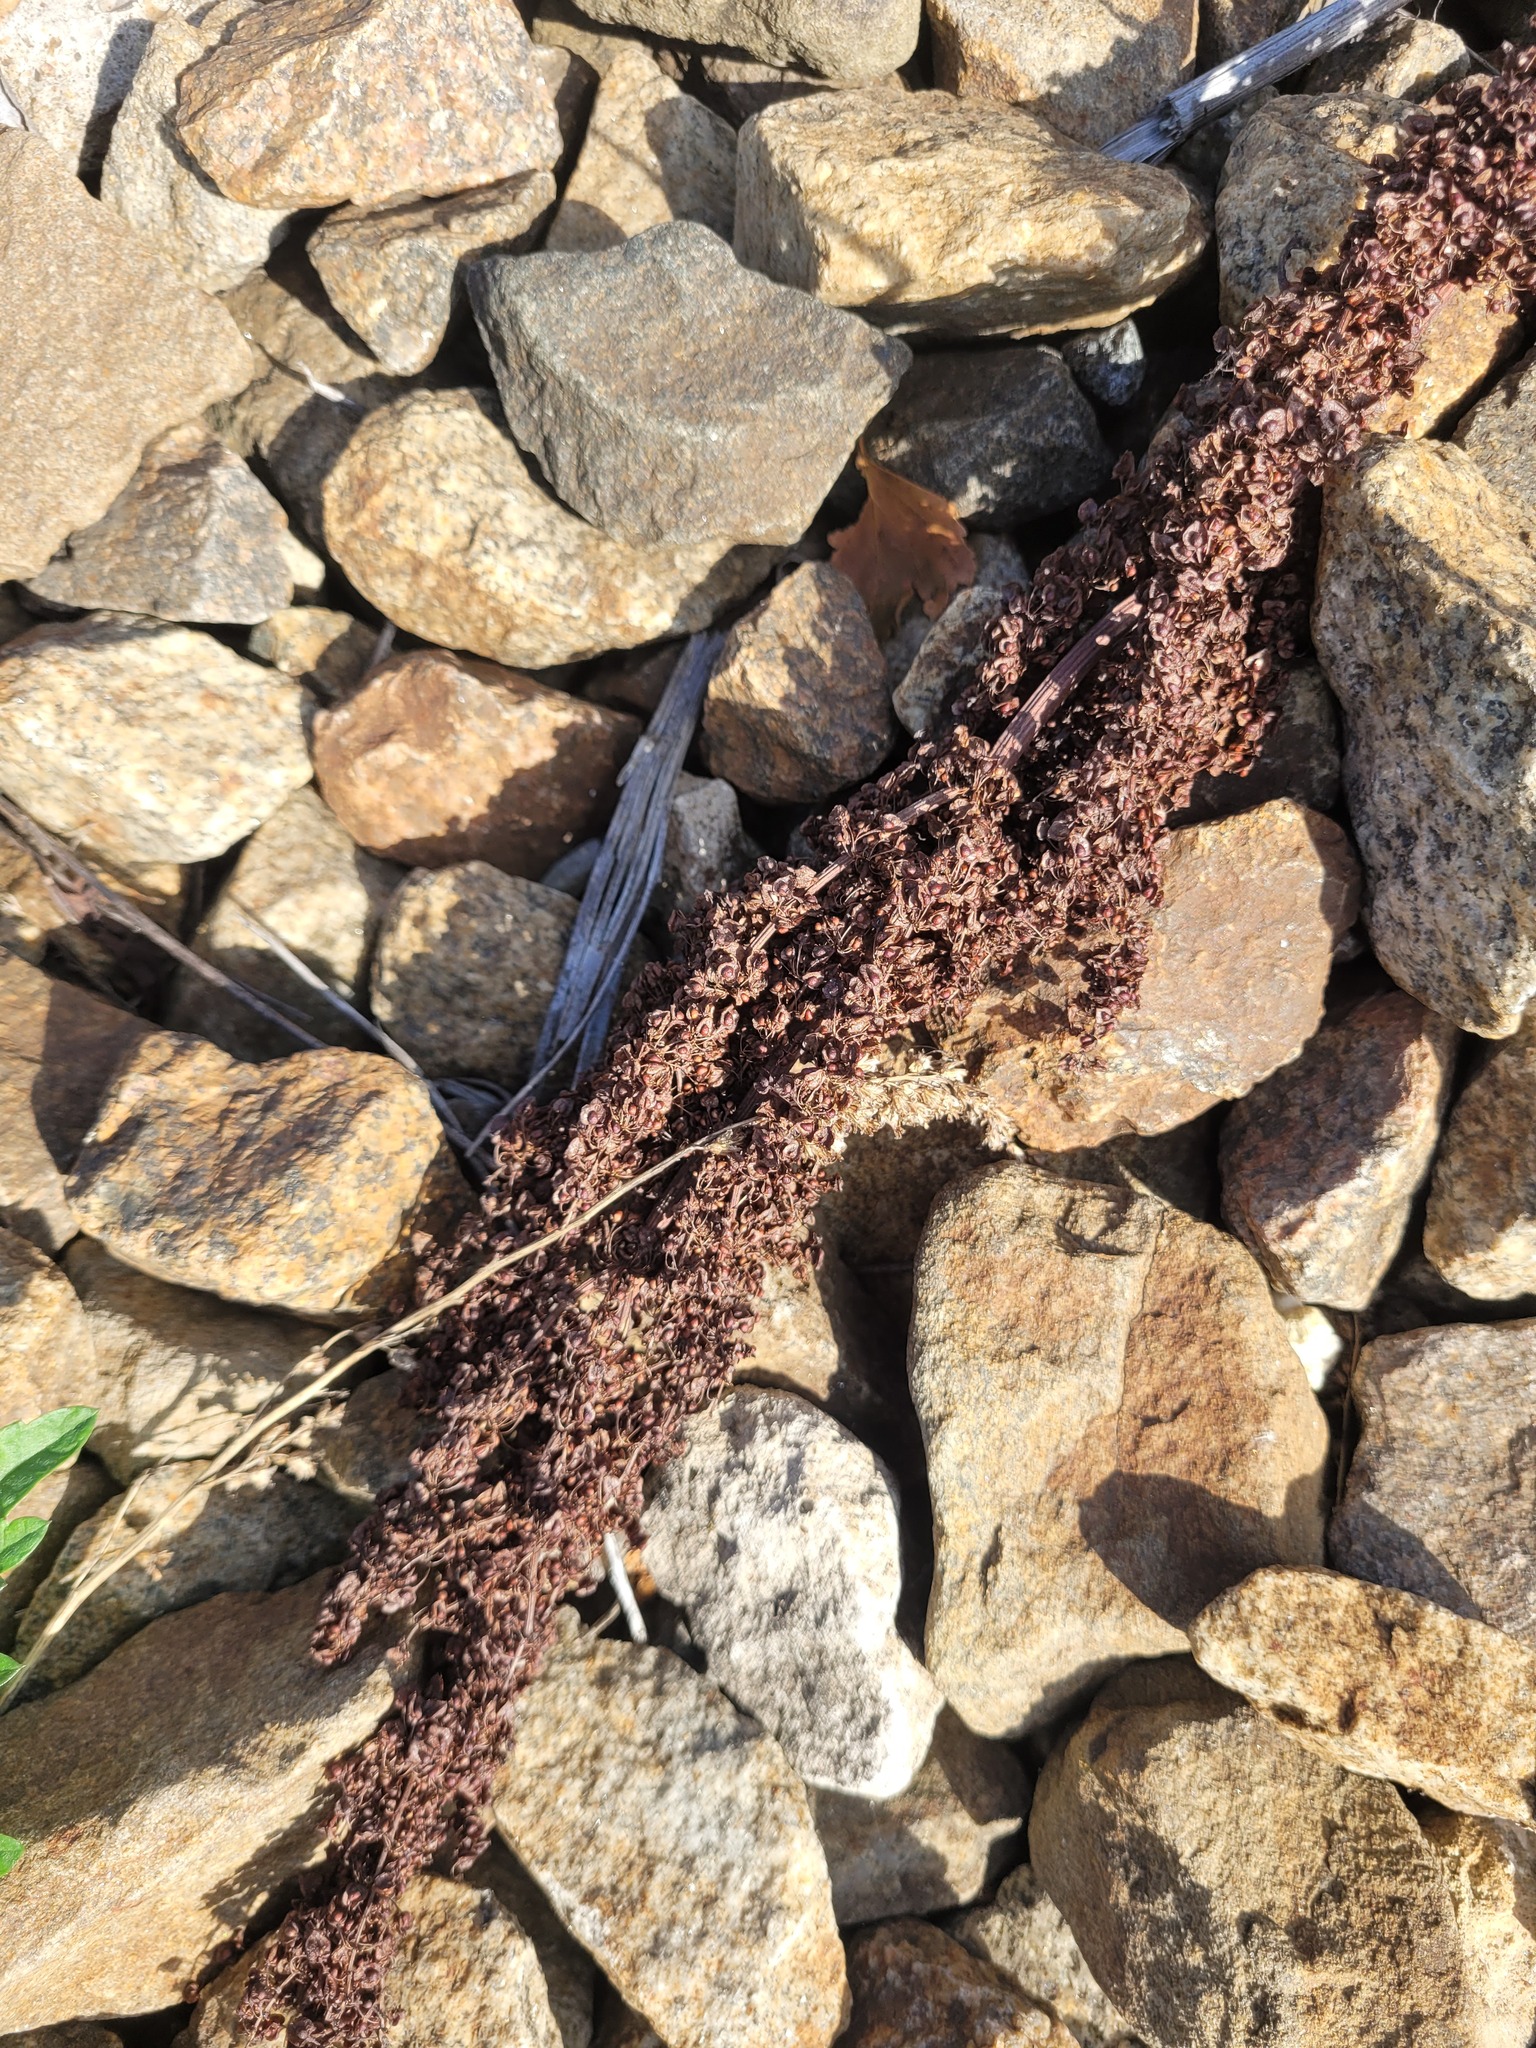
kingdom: Plantae
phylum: Tracheophyta
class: Magnoliopsida
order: Caryophyllales
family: Polygonaceae
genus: Rumex
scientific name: Rumex crispus
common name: Curled dock
